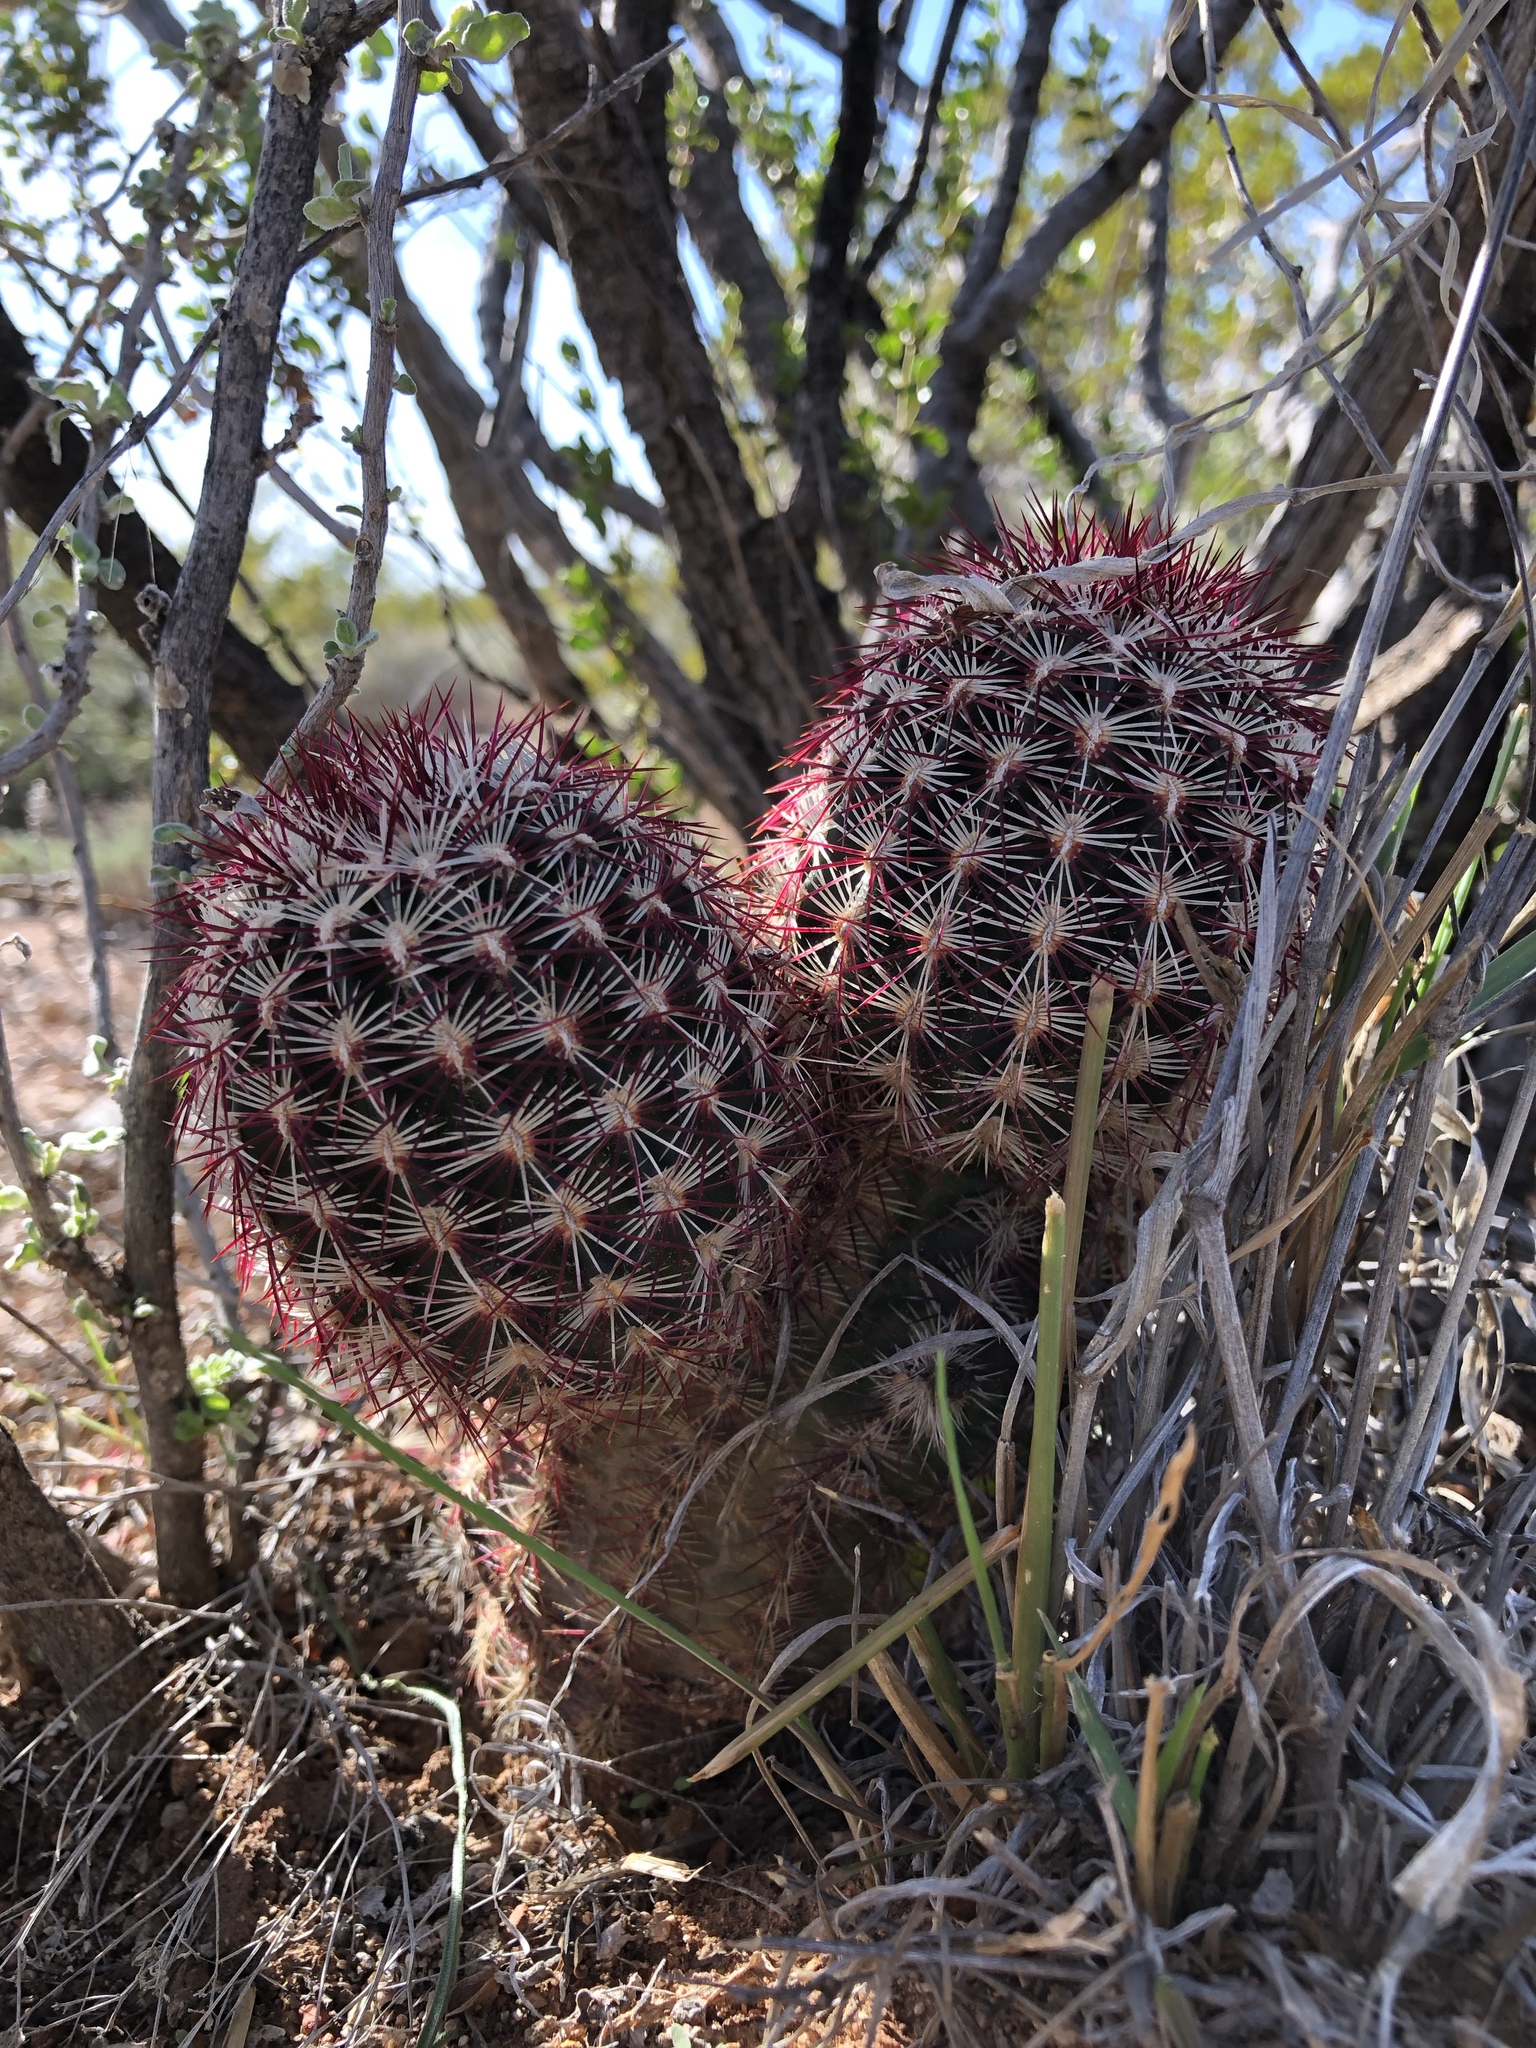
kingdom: Plantae
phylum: Tracheophyta
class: Magnoliopsida
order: Caryophyllales
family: Cactaceae
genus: Echinocereus
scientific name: Echinocereus viridiflorus
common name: Nylon hedgehog cactus
